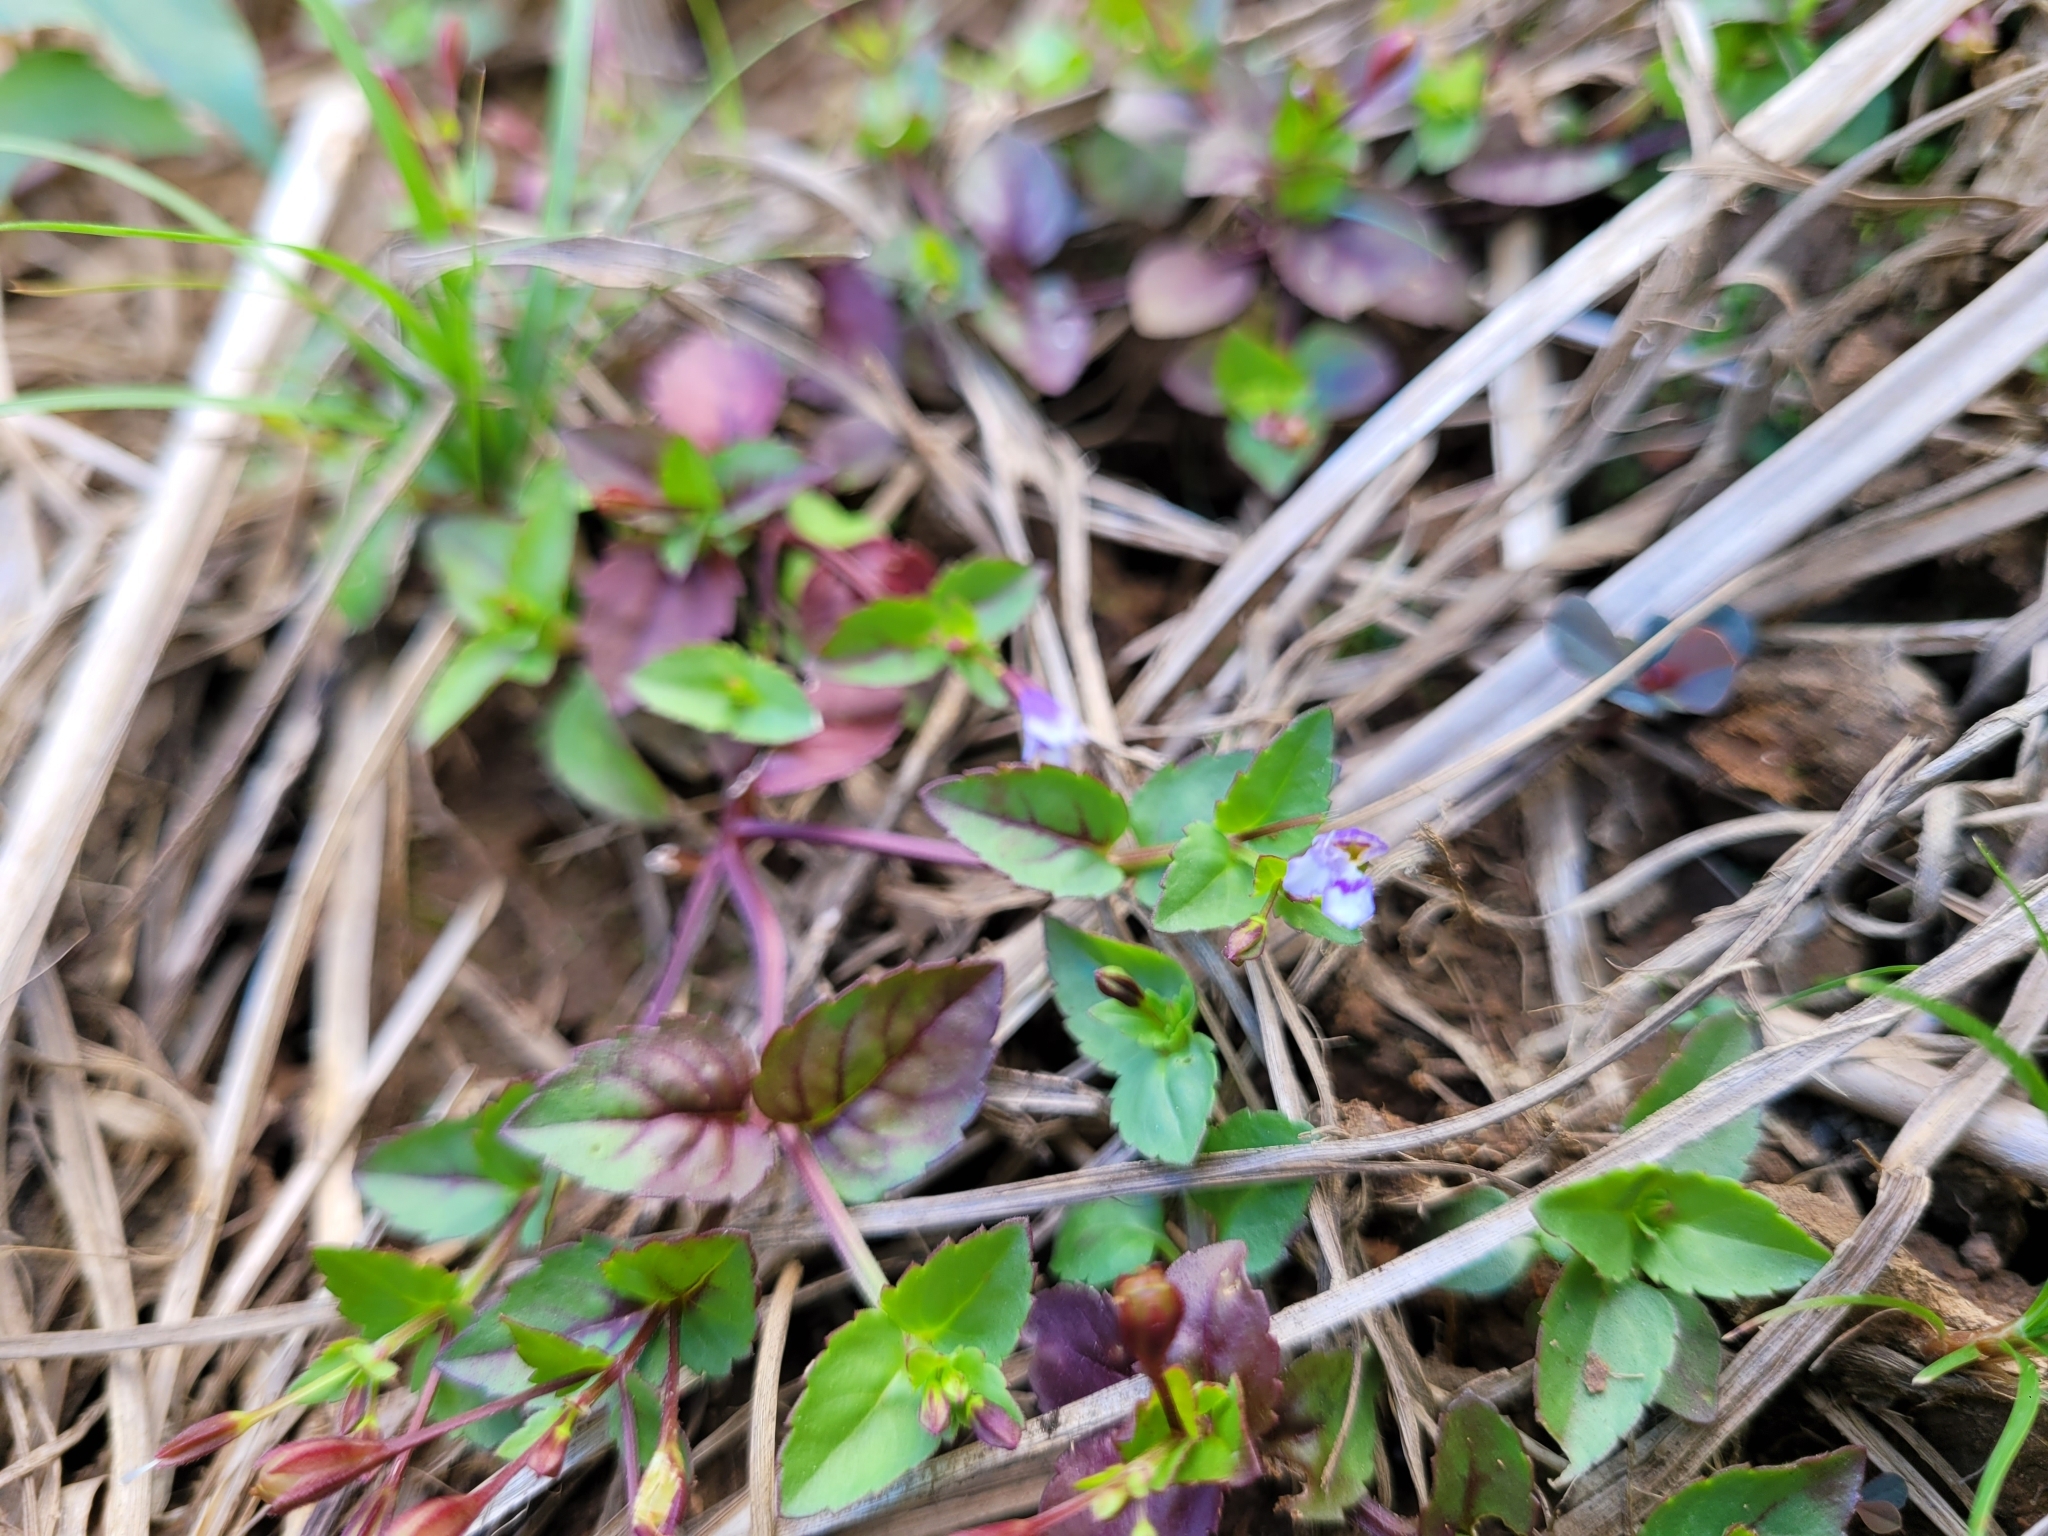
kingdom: Plantae
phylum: Tracheophyta
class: Magnoliopsida
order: Lamiales
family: Linderniaceae
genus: Torenia
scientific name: Torenia crustacea
